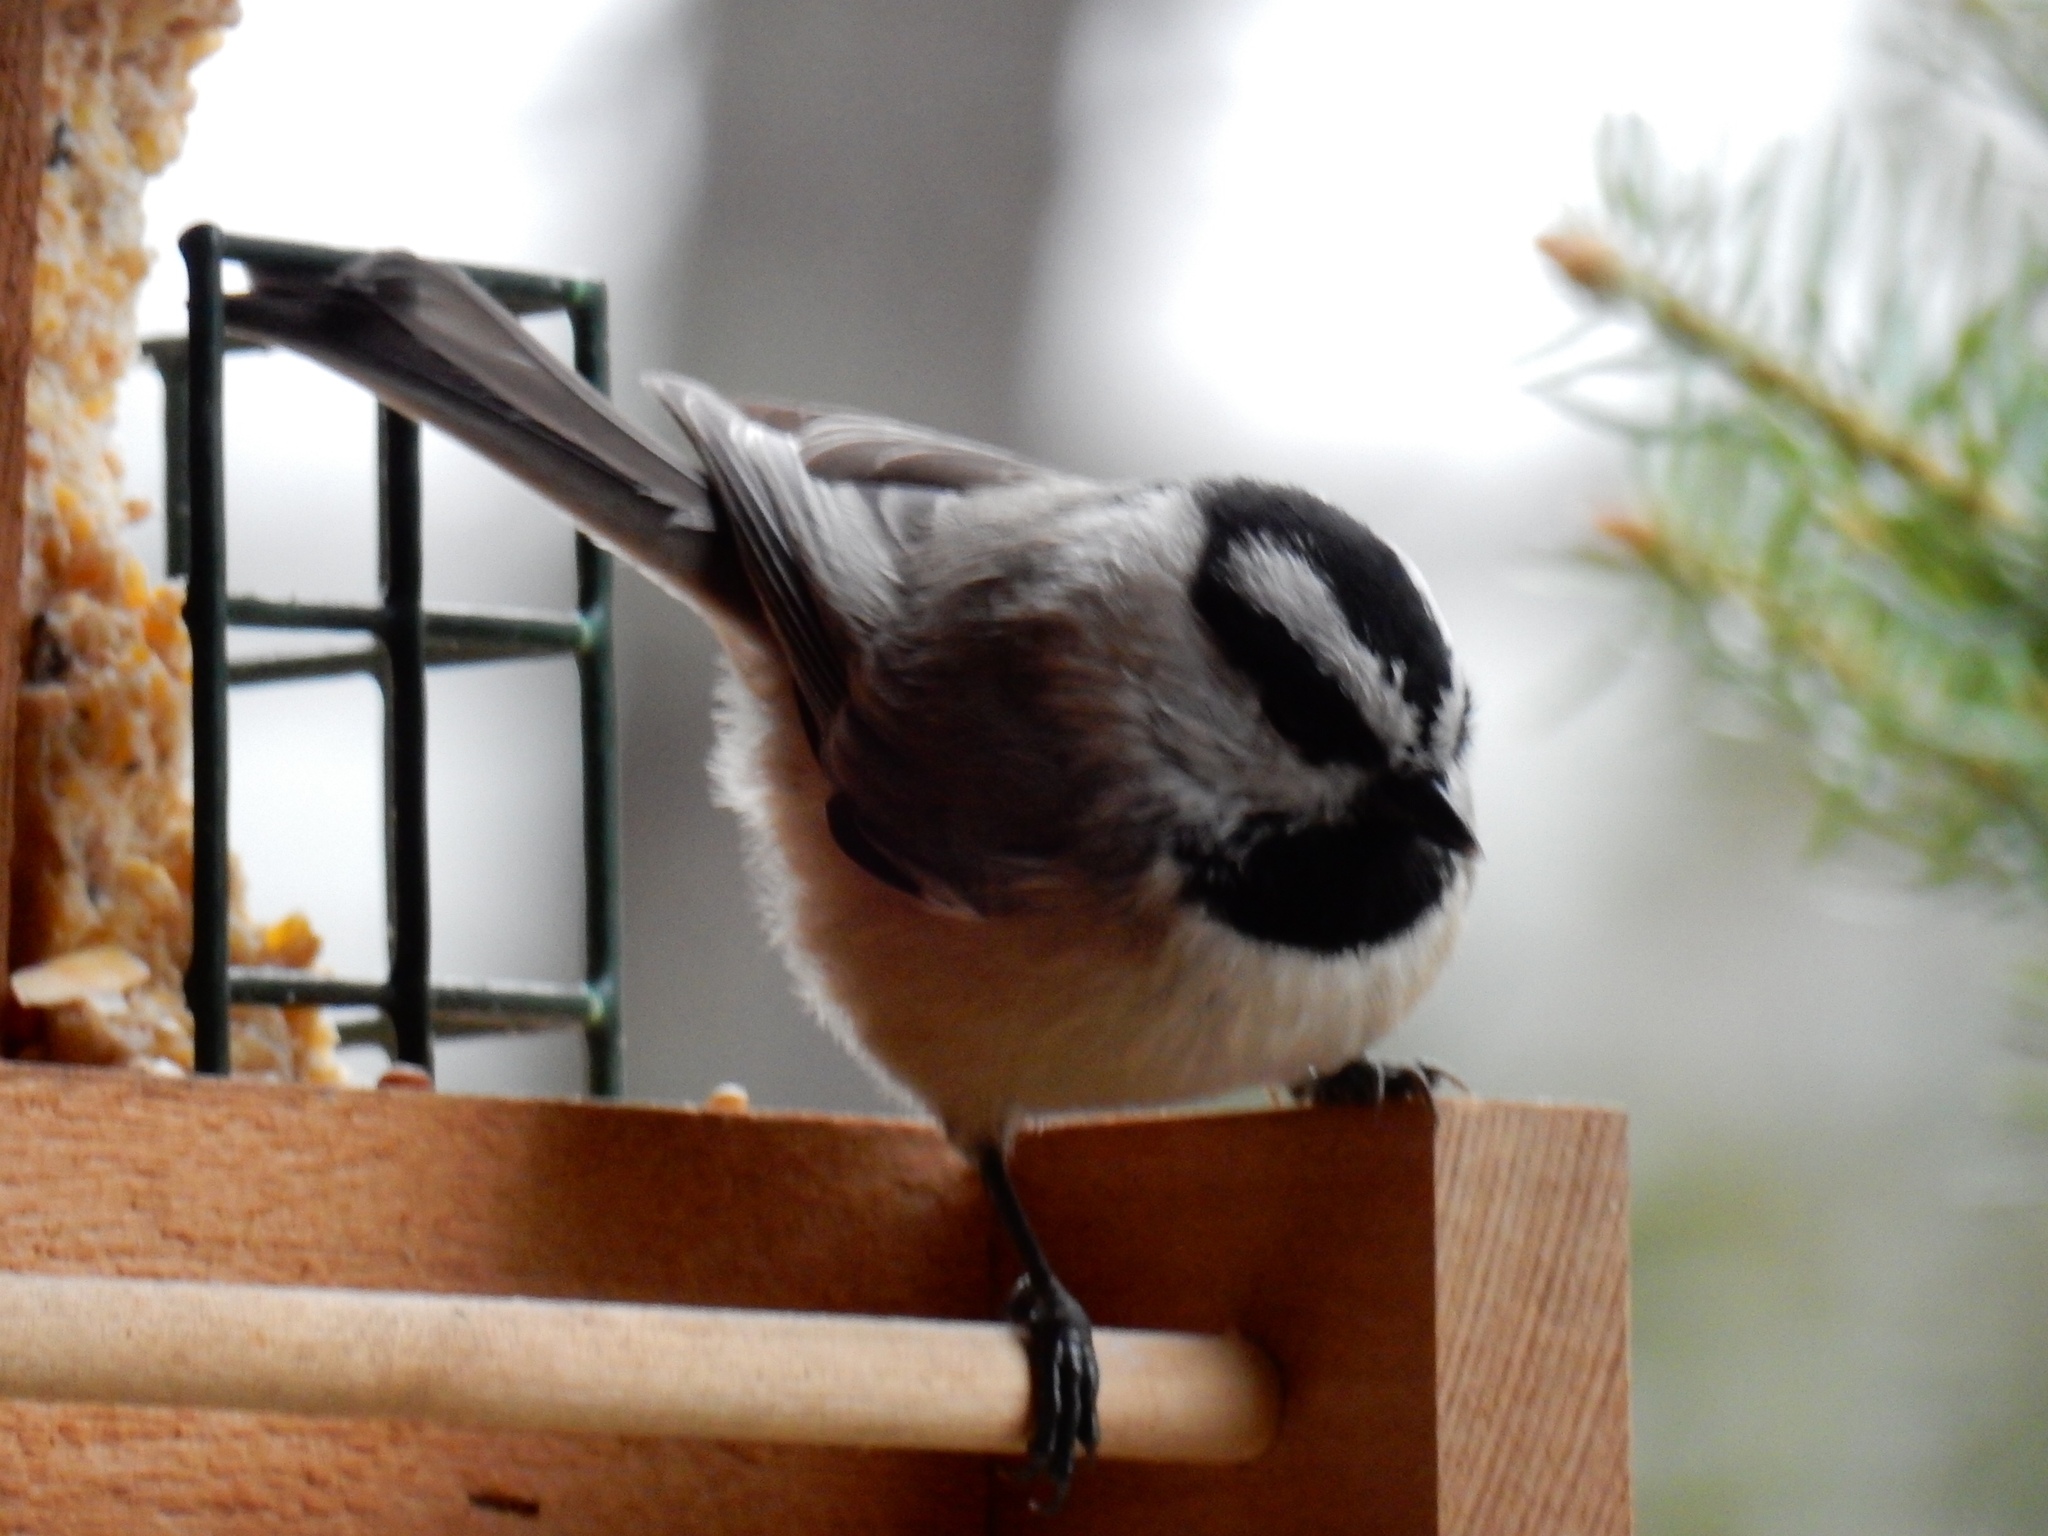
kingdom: Animalia
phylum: Chordata
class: Aves
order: Passeriformes
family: Paridae
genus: Poecile
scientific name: Poecile gambeli
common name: Mountain chickadee
